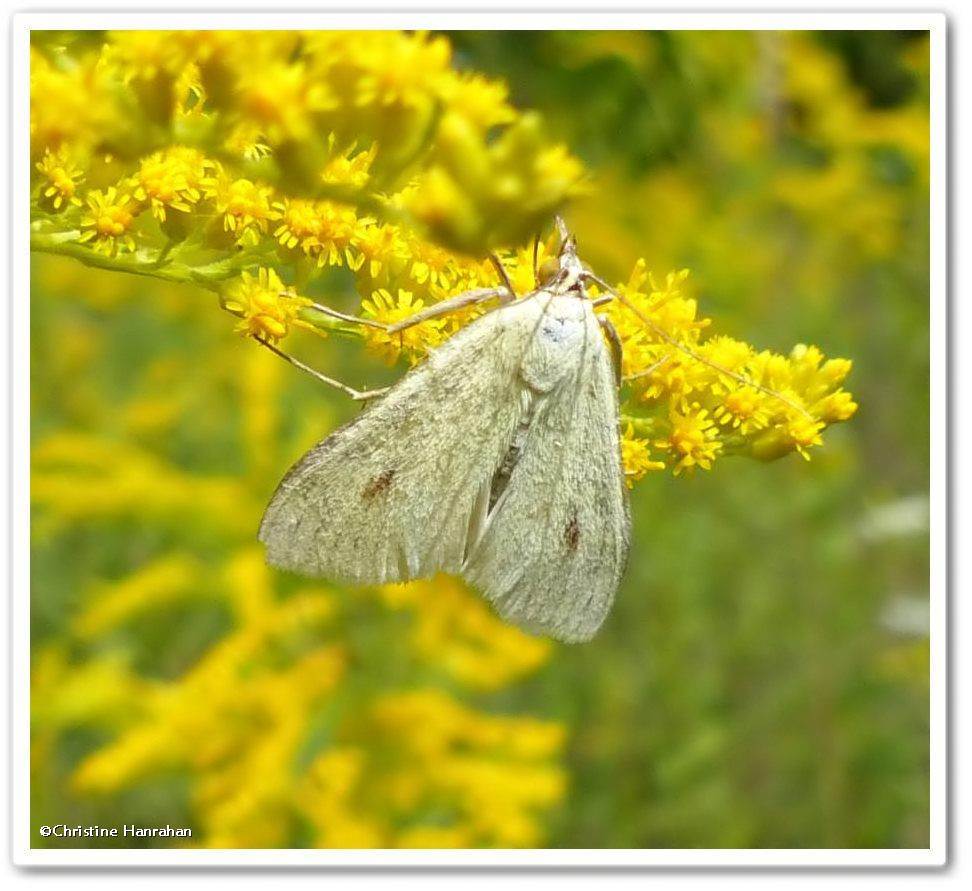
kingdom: Animalia
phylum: Arthropoda
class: Insecta
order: Lepidoptera
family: Crambidae
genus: Sitochroa
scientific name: Sitochroa palealis
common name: Greenish-yellow sitochroa moth
